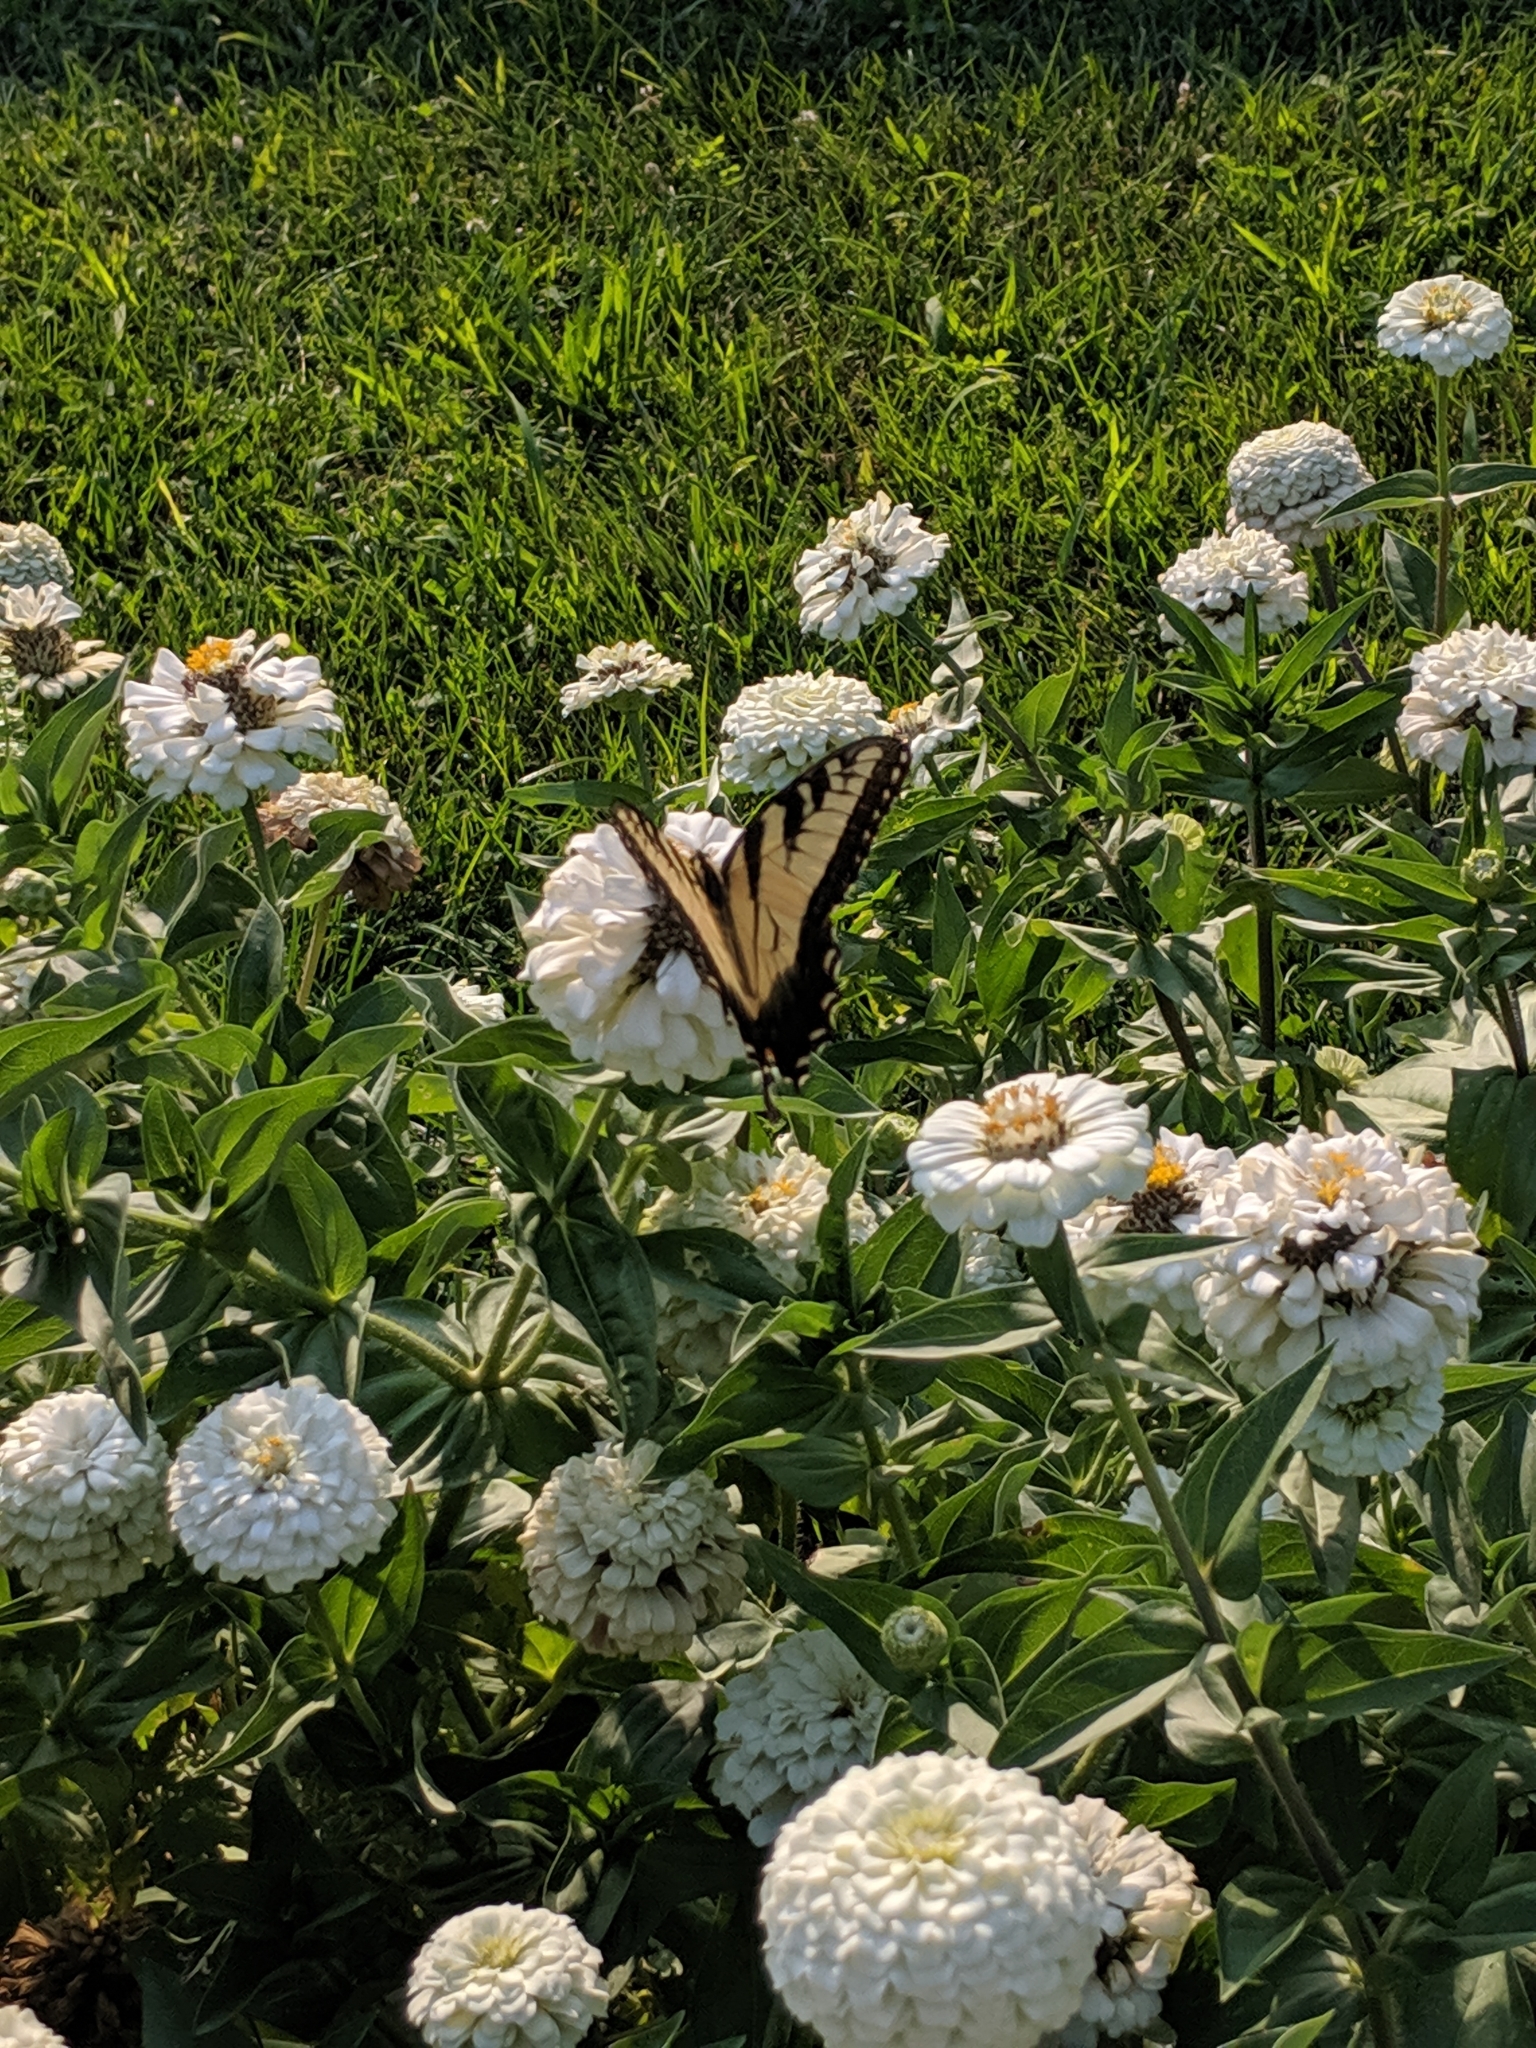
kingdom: Animalia
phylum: Arthropoda
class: Insecta
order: Lepidoptera
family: Papilionidae
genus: Papilio
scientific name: Papilio glaucus
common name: Tiger swallowtail
